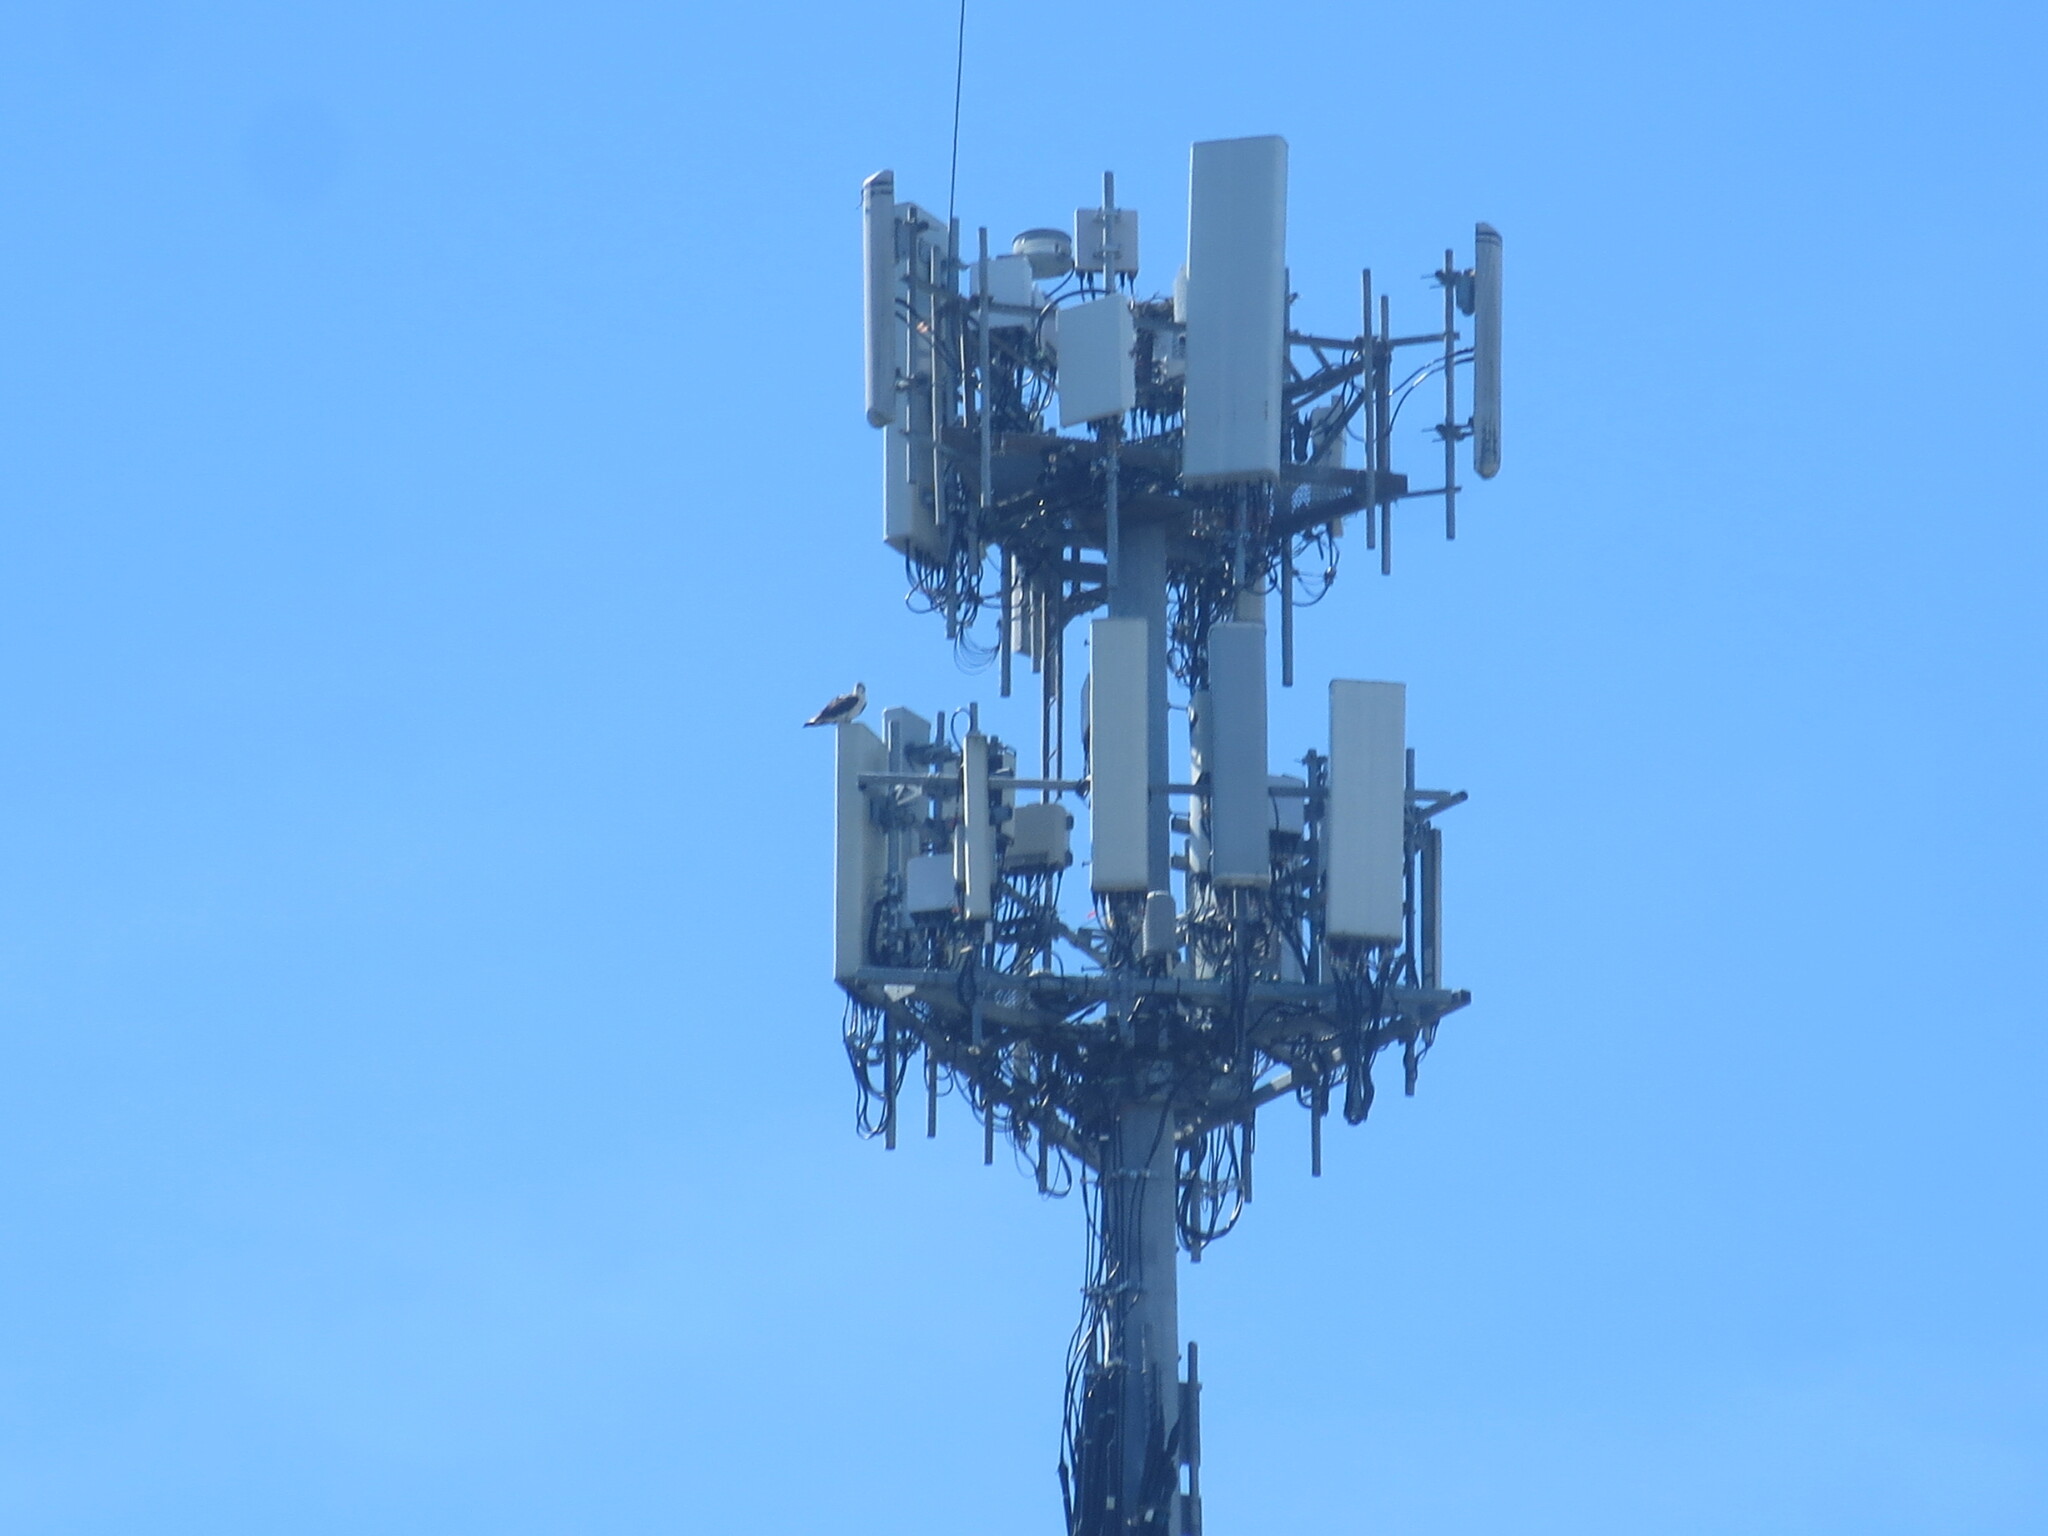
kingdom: Animalia
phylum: Chordata
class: Aves
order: Accipitriformes
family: Pandionidae
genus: Pandion
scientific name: Pandion haliaetus
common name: Osprey
